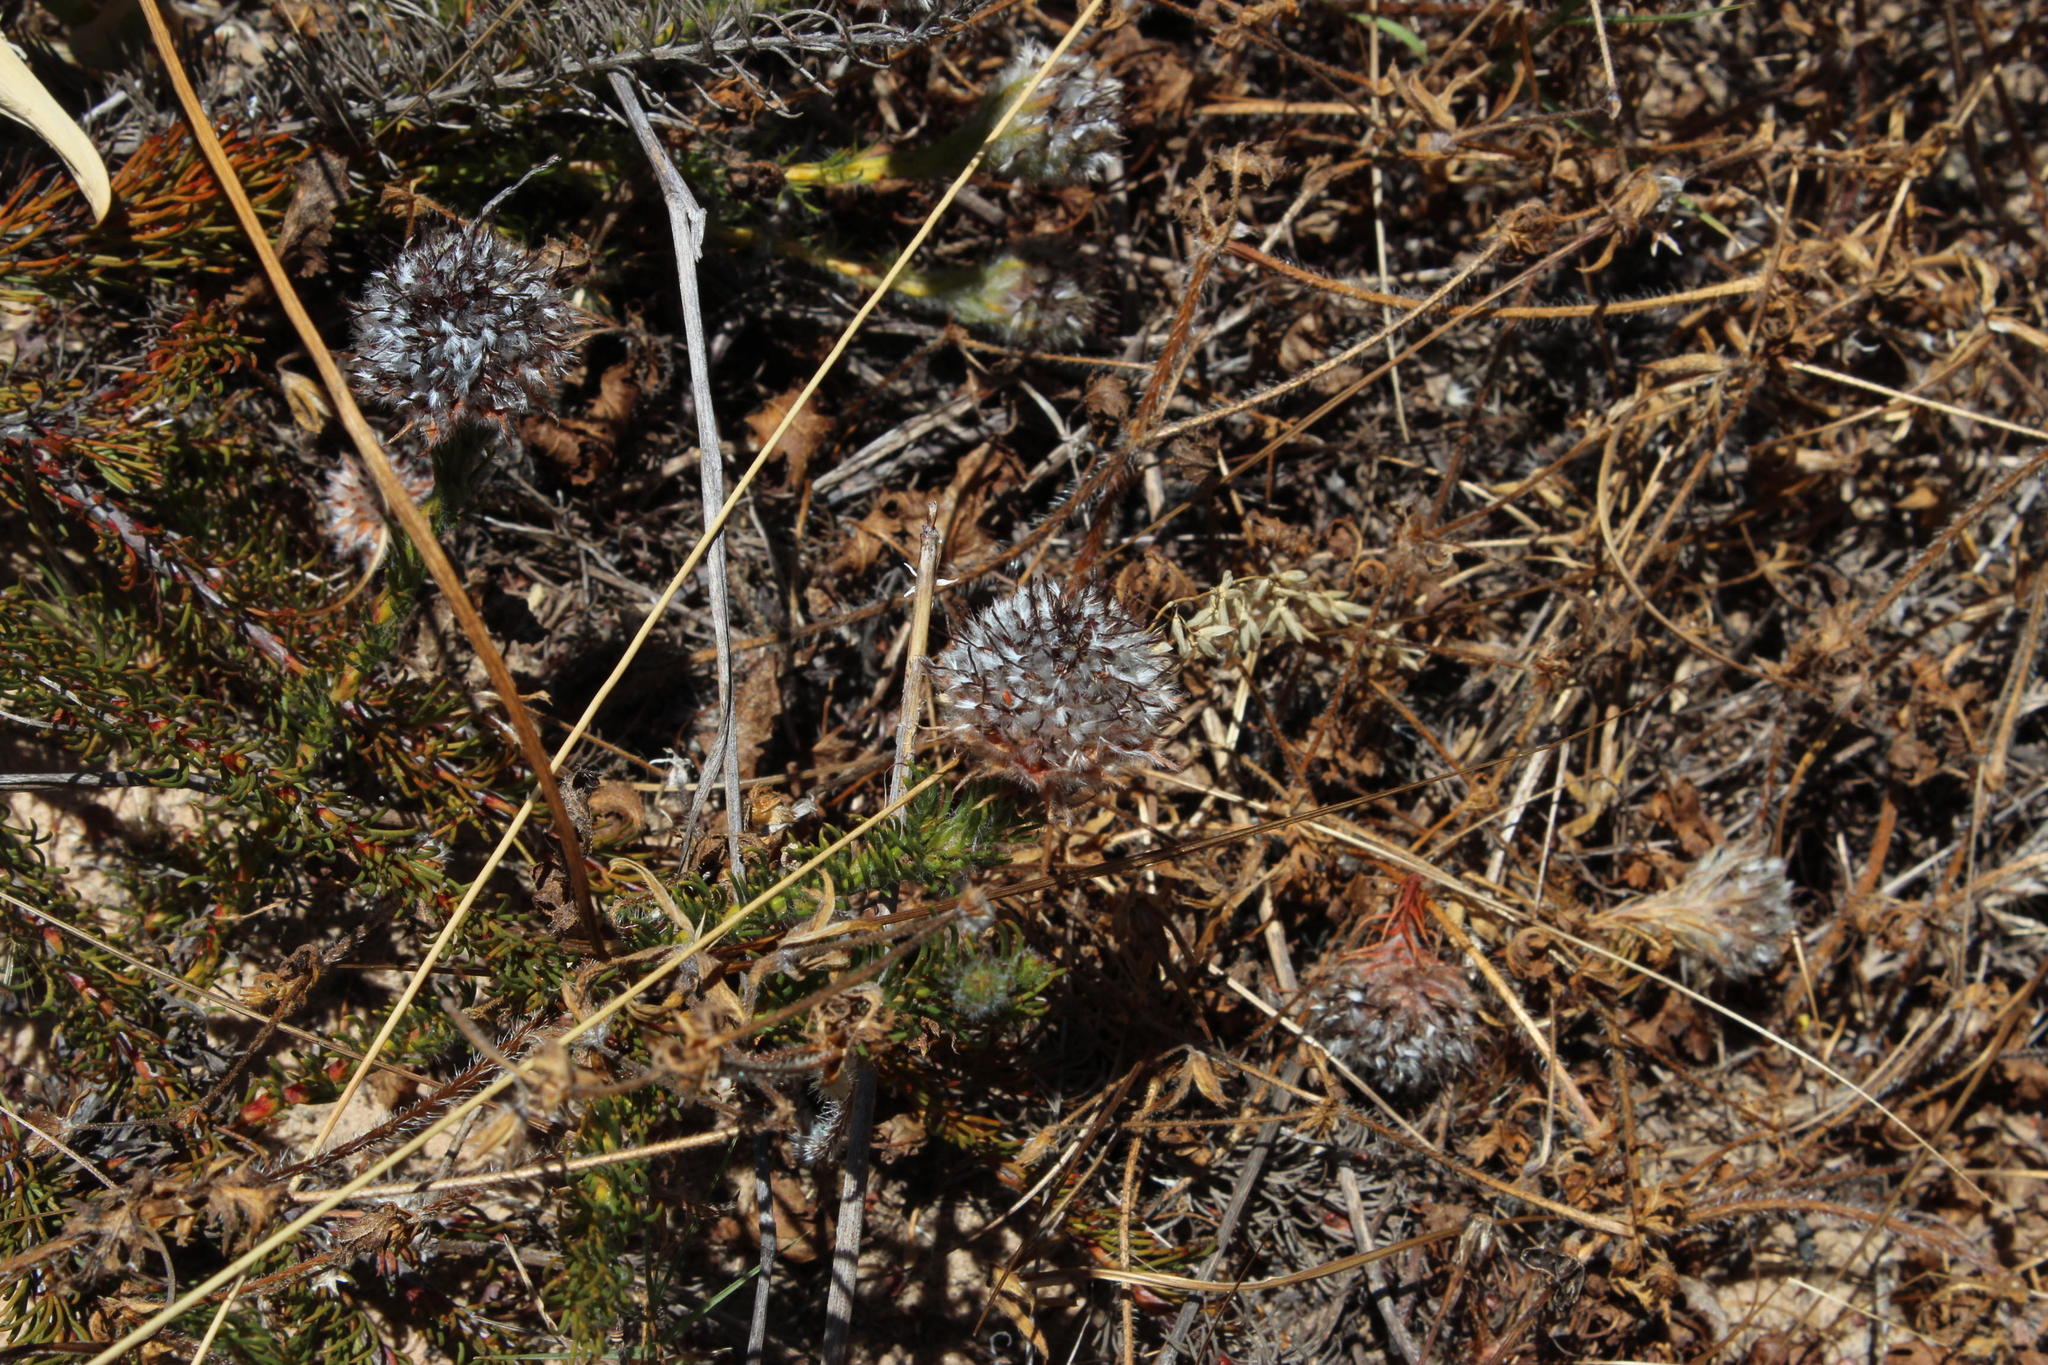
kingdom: Plantae
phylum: Tracheophyta
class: Magnoliopsida
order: Proteales
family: Proteaceae
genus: Serruria
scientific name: Serruria trilopha
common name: Trident spiderhead
